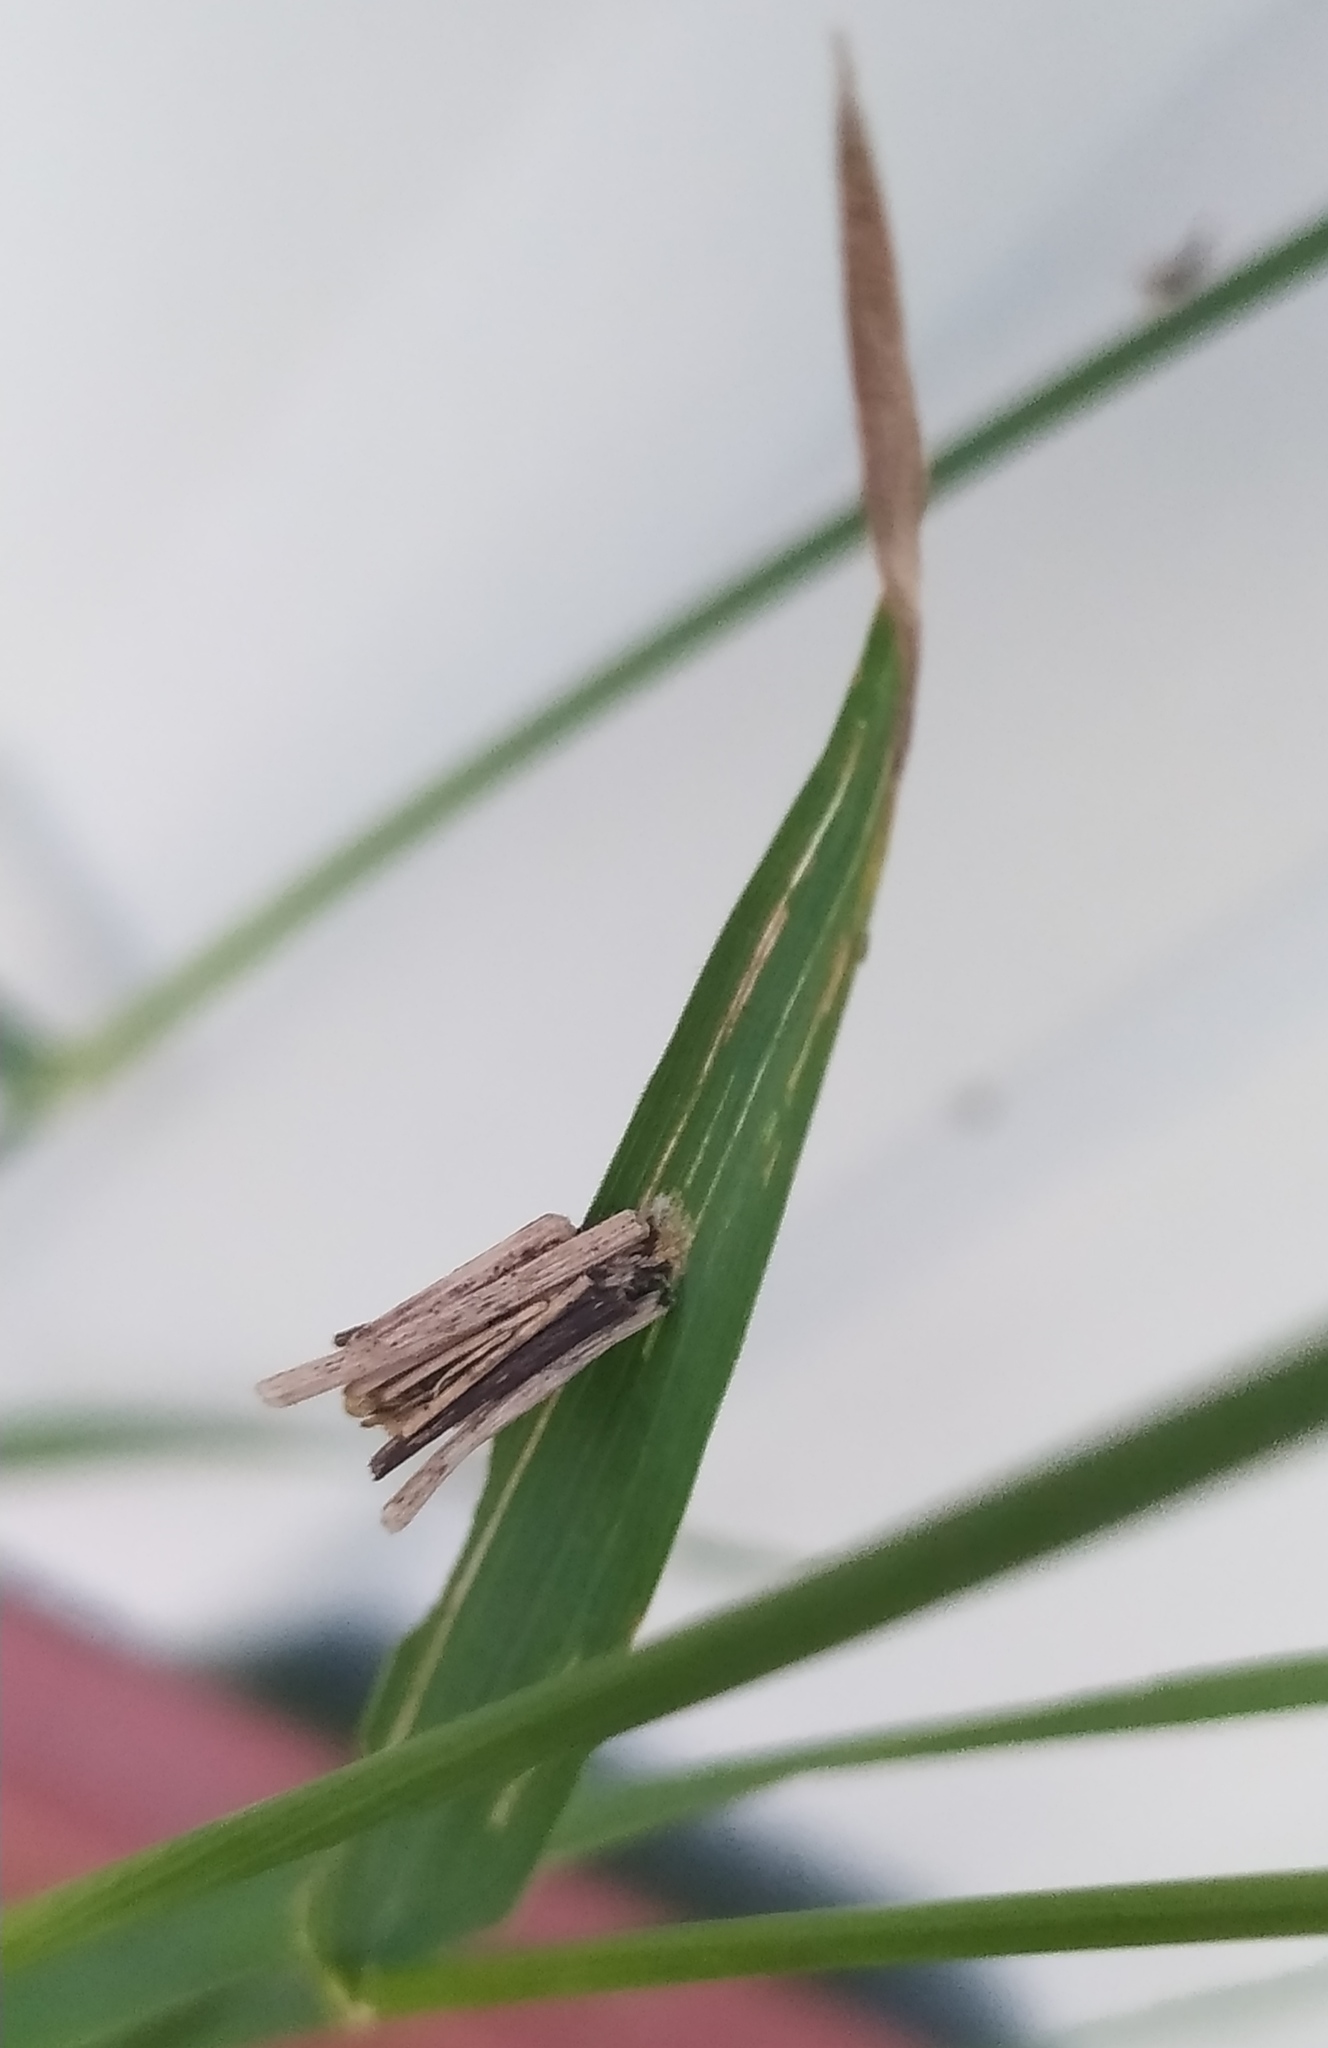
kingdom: Animalia
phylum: Arthropoda
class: Insecta
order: Lepidoptera
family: Psychidae
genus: Psyche
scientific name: Psyche casta
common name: Common sweep
